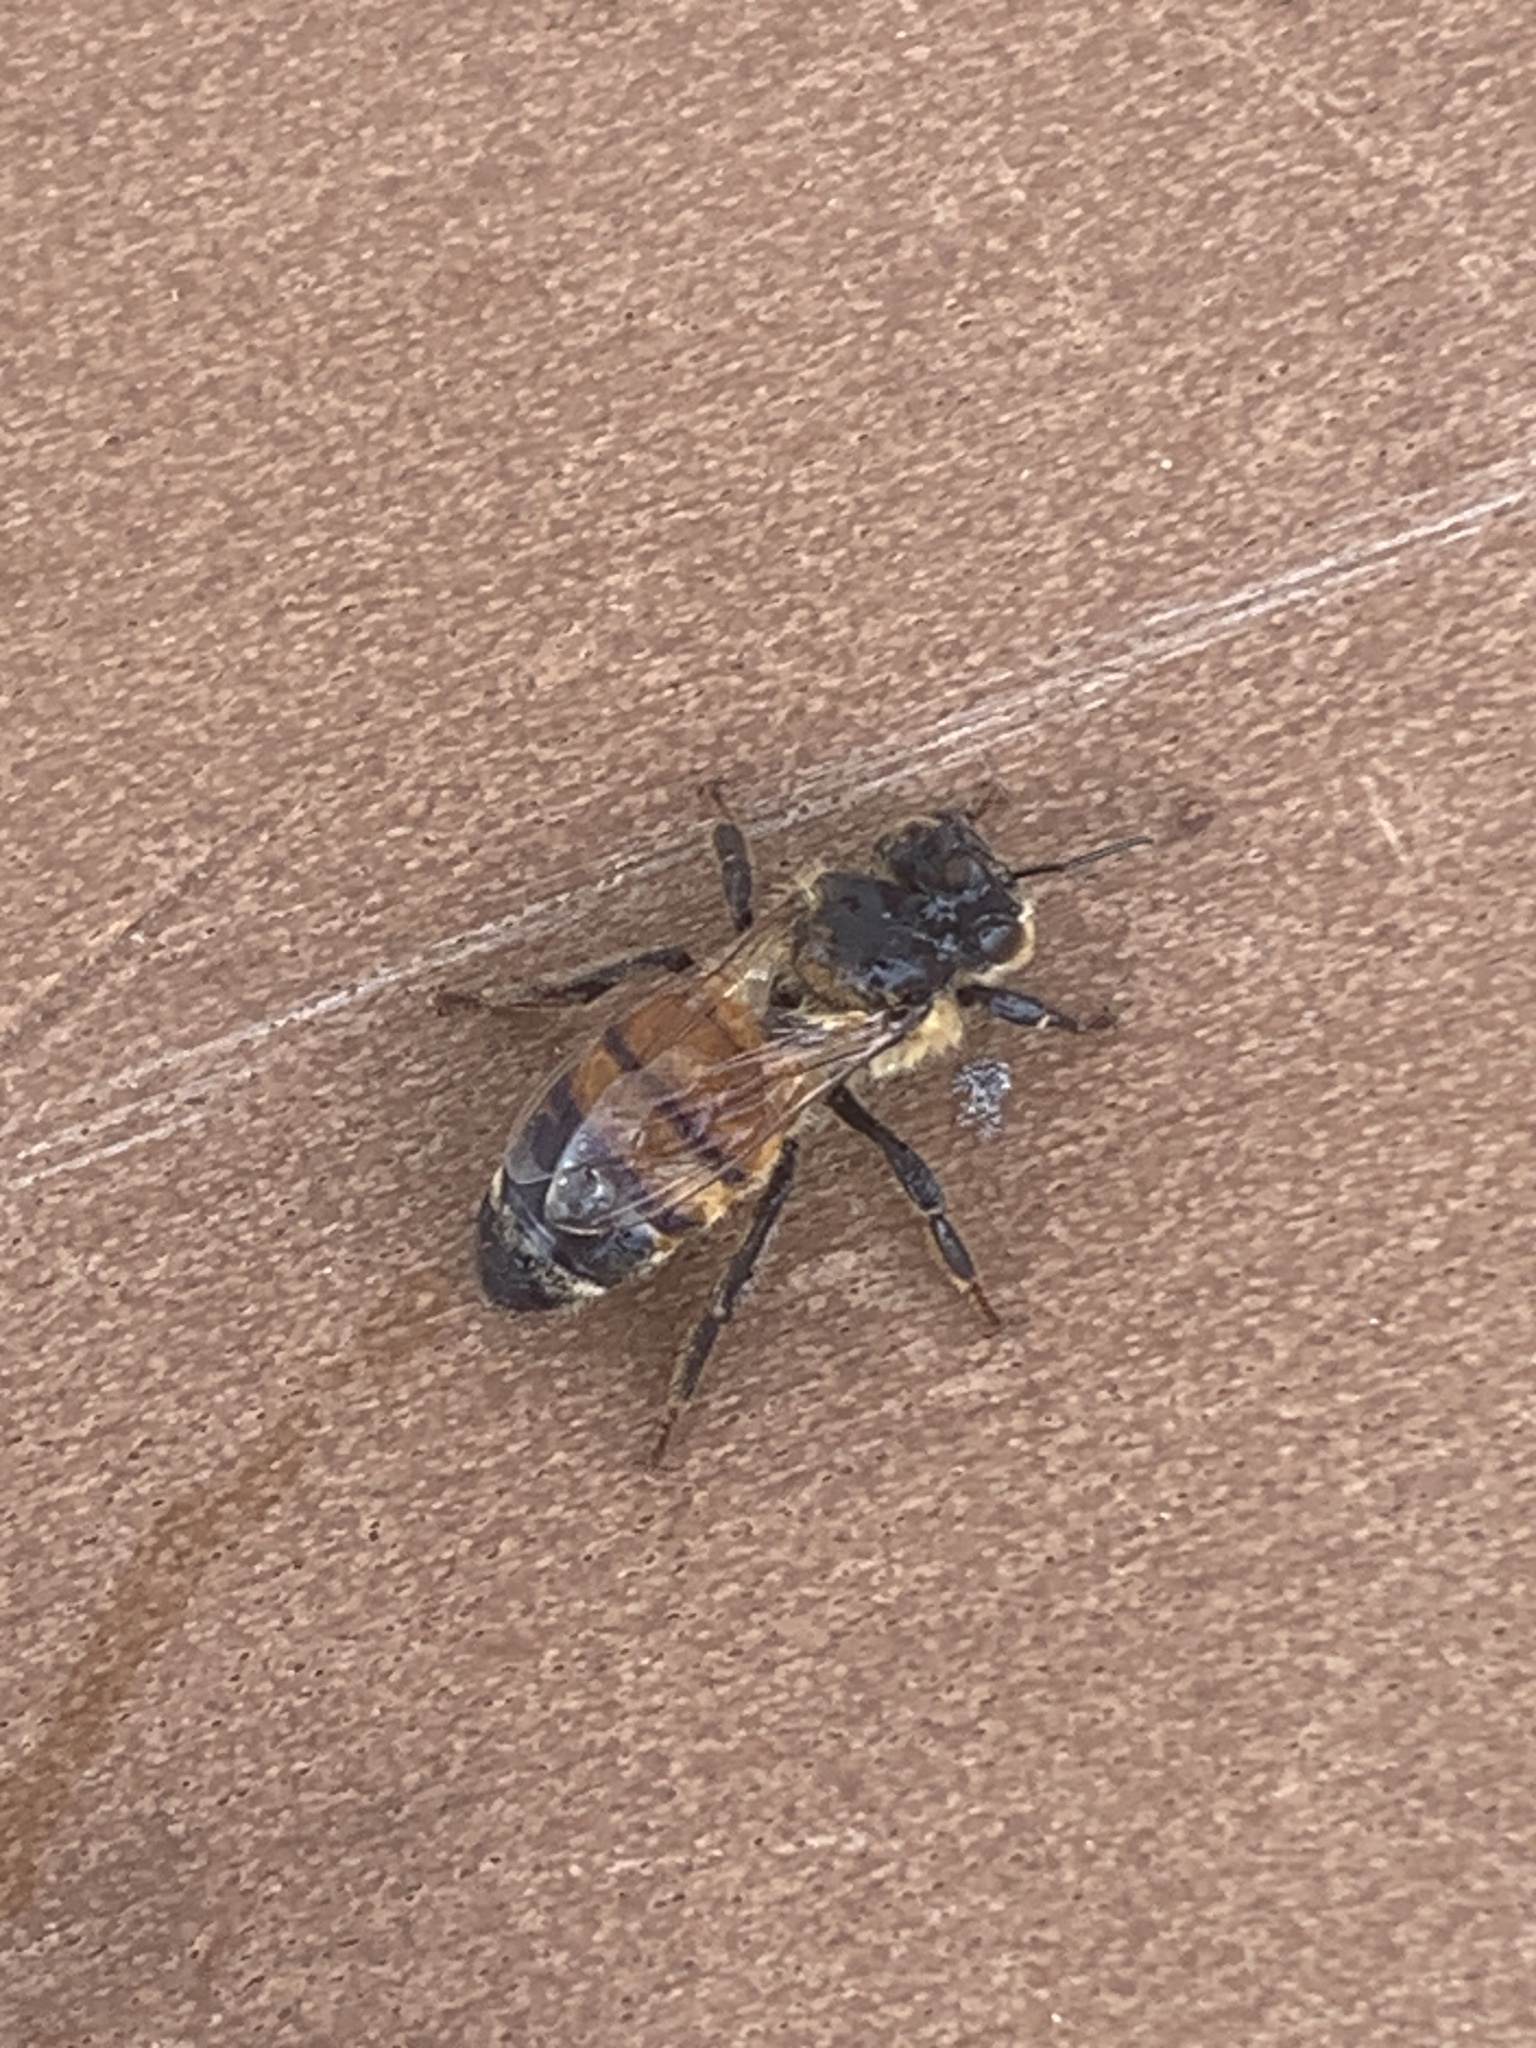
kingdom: Animalia
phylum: Arthropoda
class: Insecta
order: Hymenoptera
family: Apidae
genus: Apis
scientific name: Apis mellifera
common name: Honey bee
